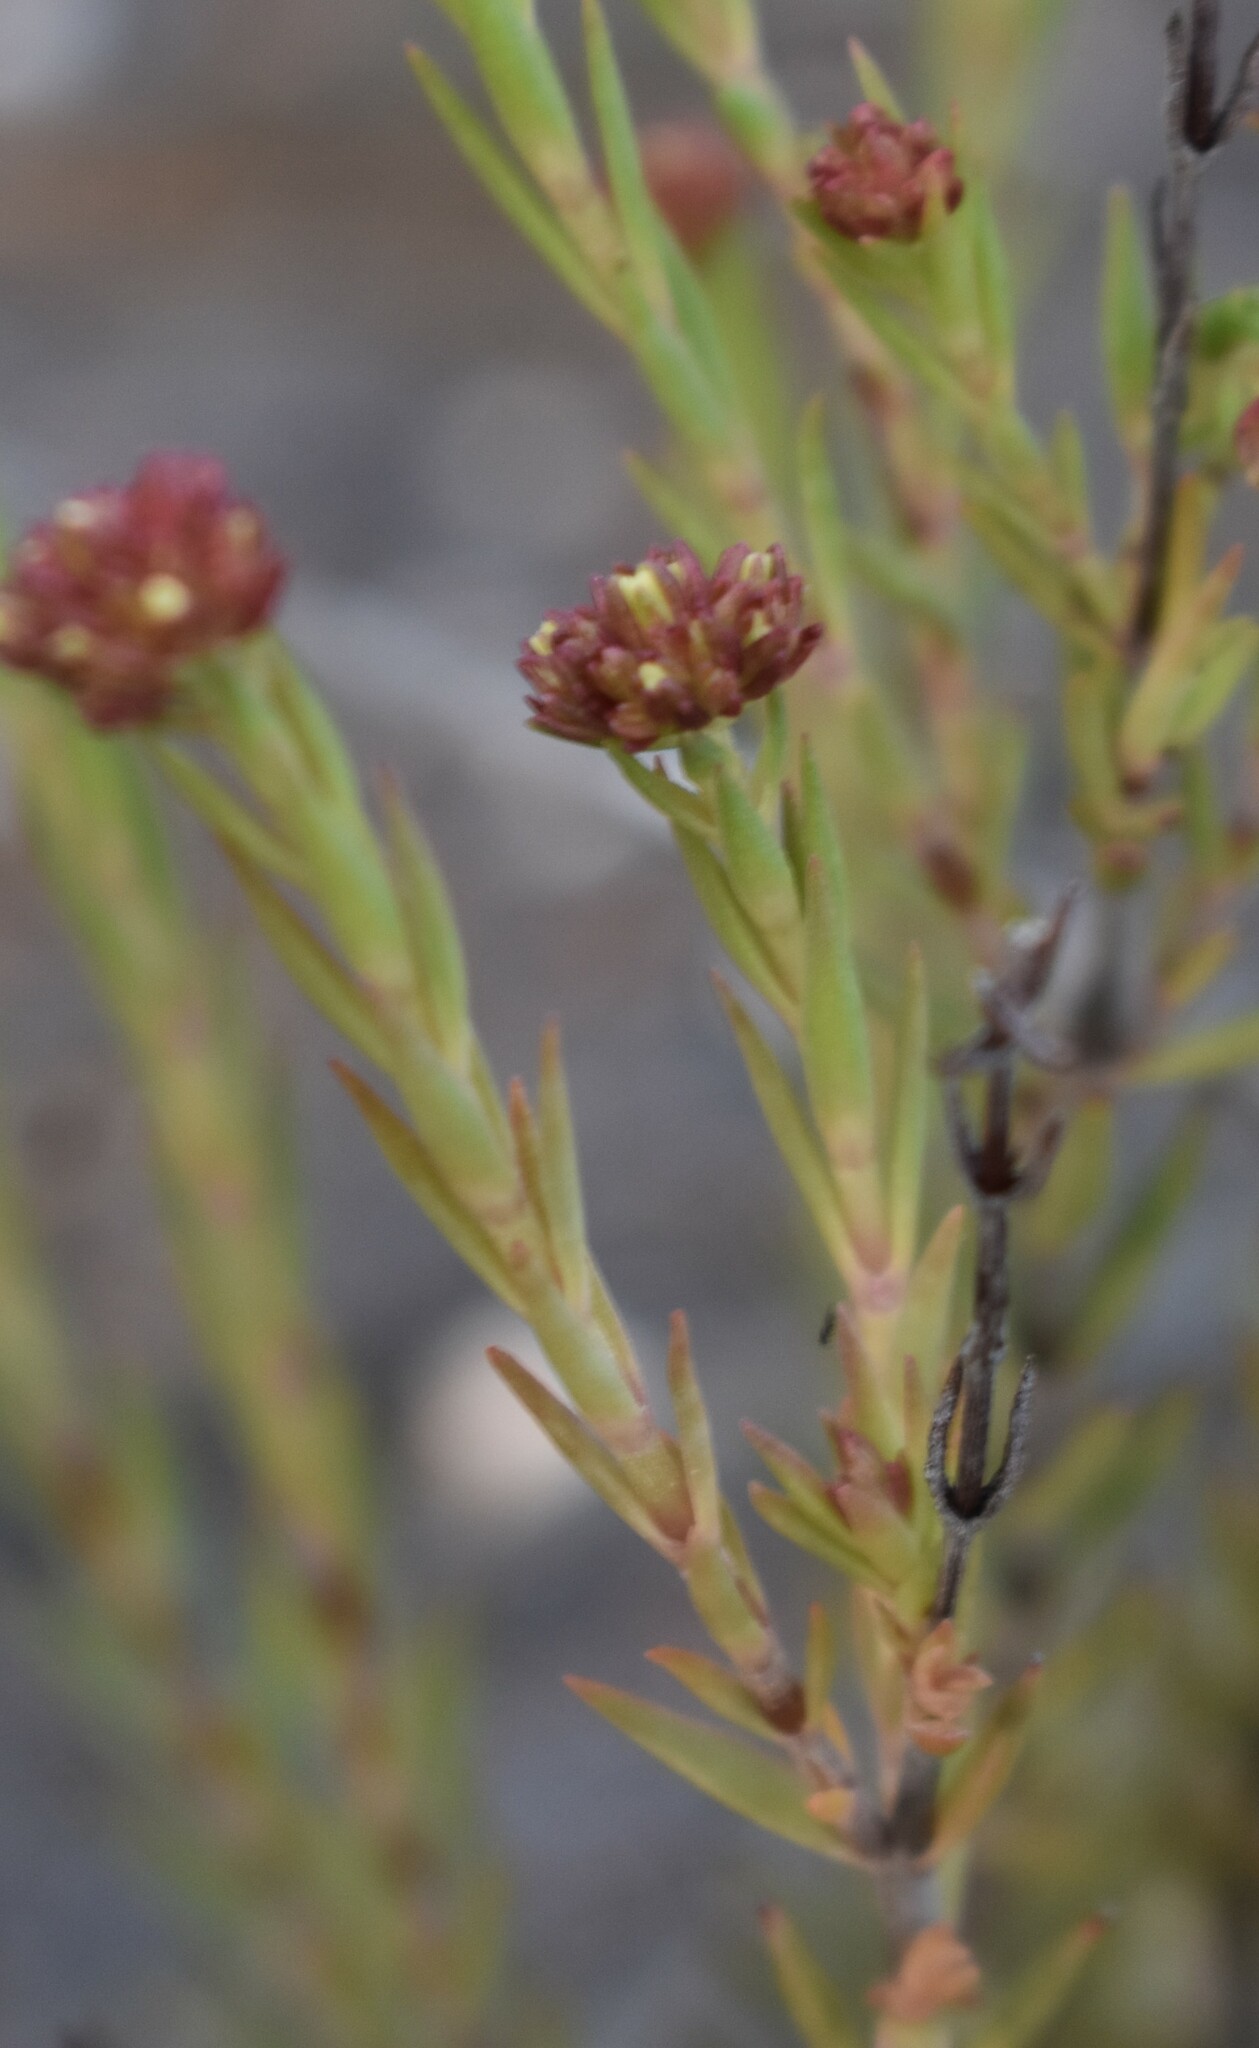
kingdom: Plantae
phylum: Tracheophyta
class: Magnoliopsida
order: Saxifragales
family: Crassulaceae
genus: Crassula
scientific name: Crassula subulata
